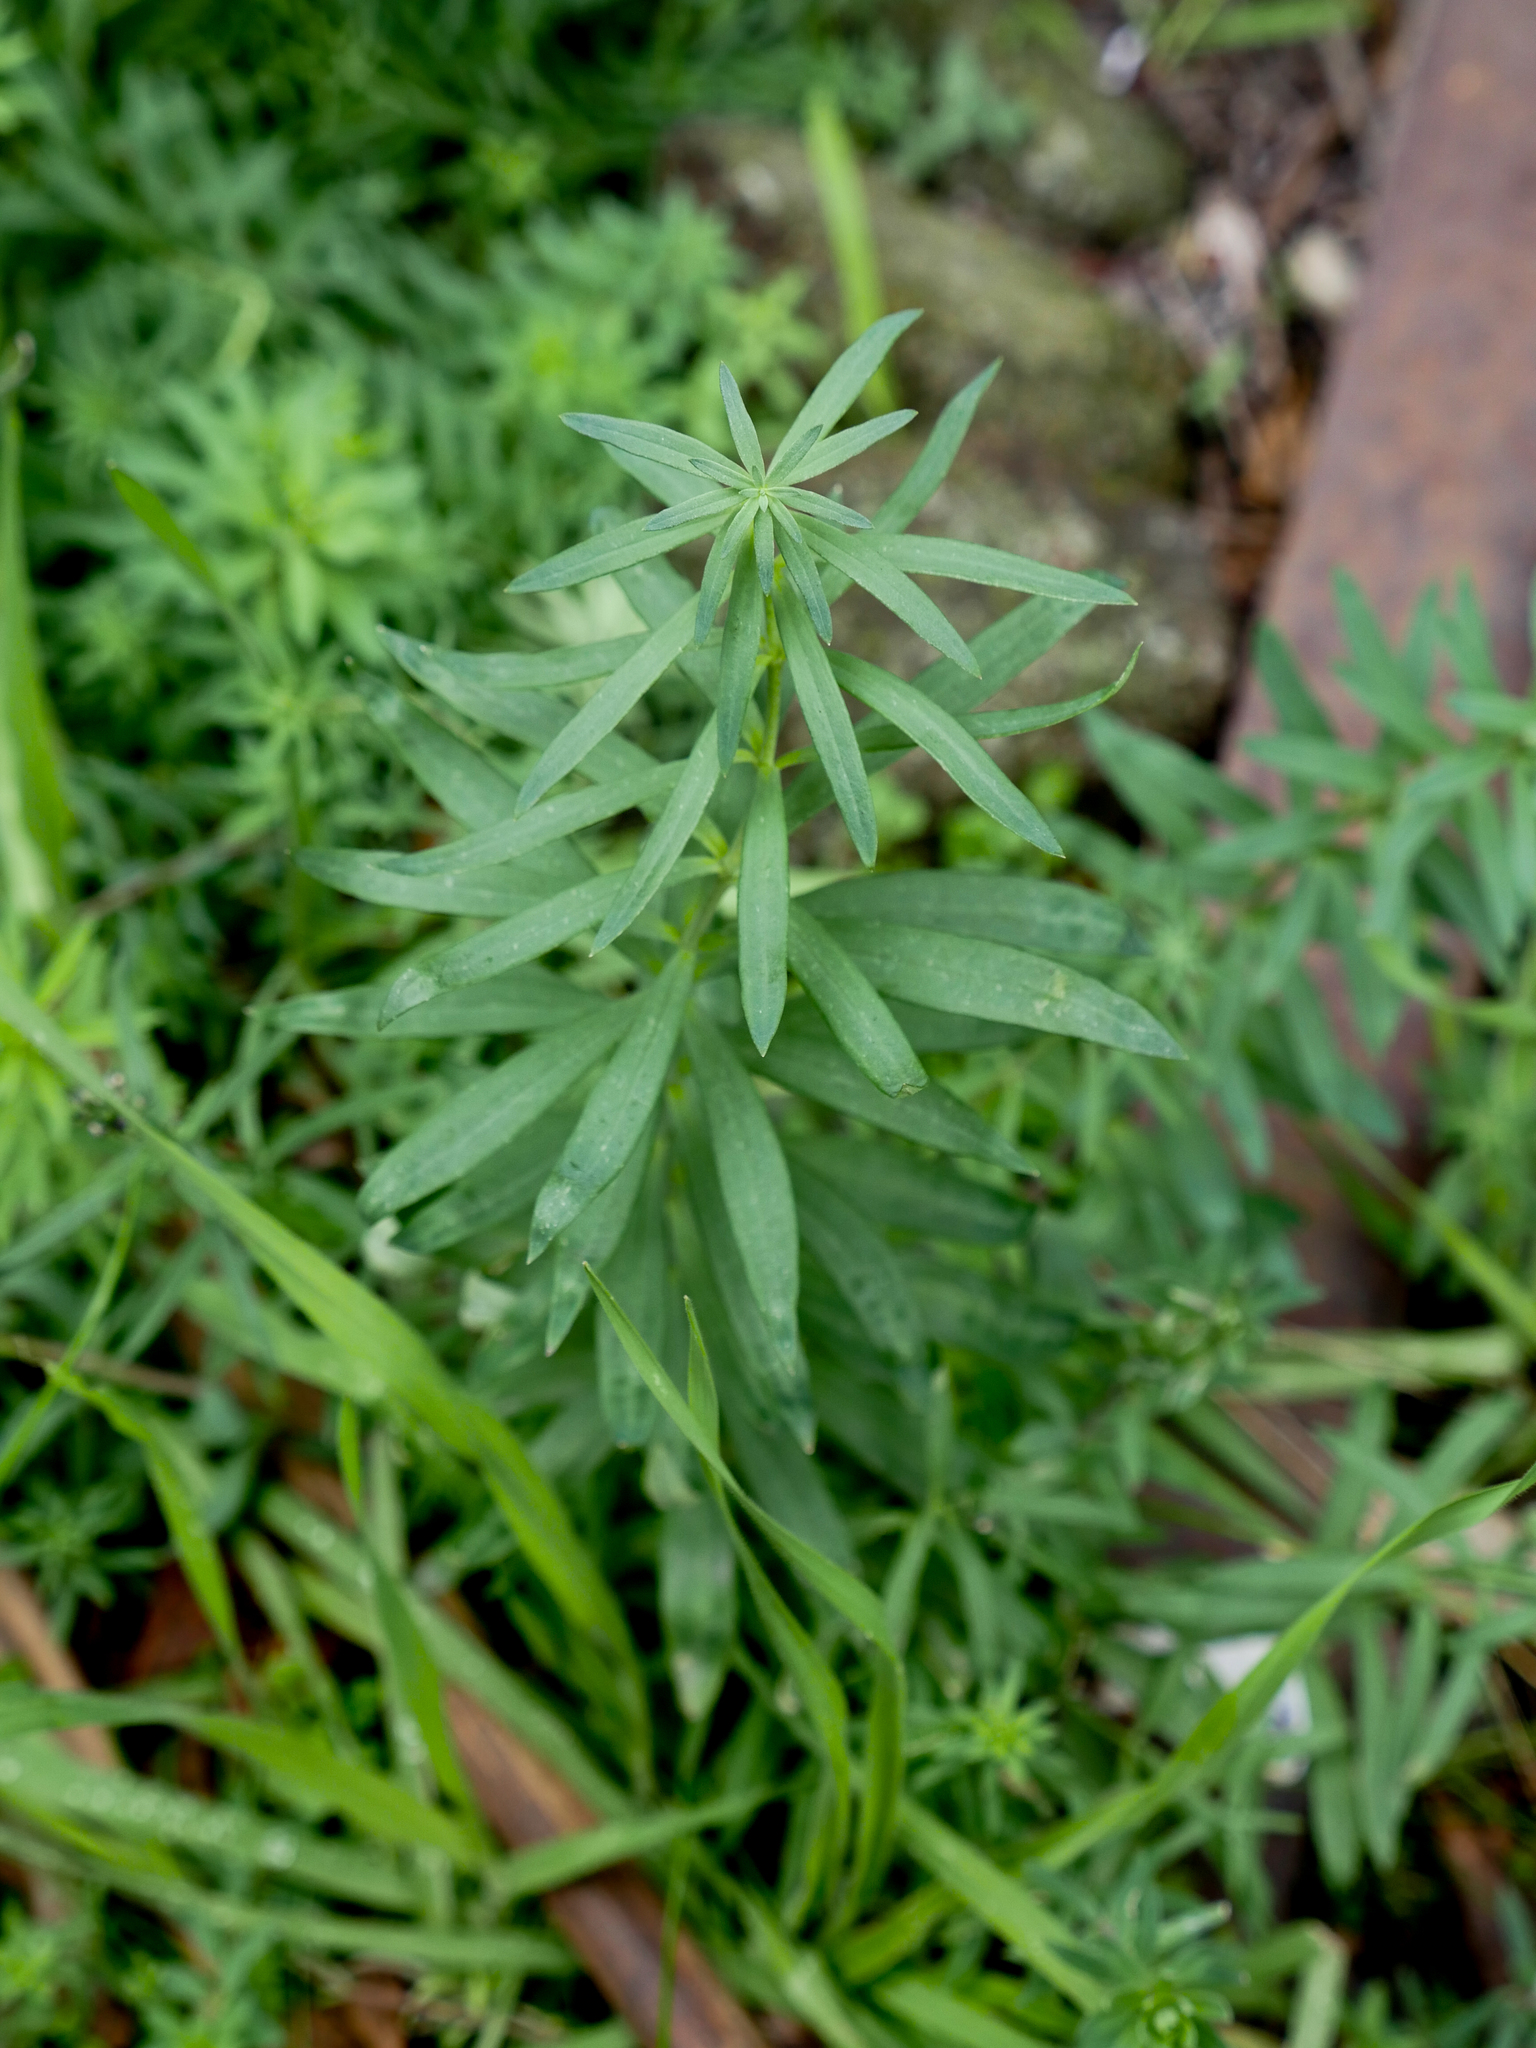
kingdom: Plantae
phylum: Tracheophyta
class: Magnoliopsida
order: Lamiales
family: Plantaginaceae
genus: Linaria
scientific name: Linaria purpurea
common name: Purple toadflax
